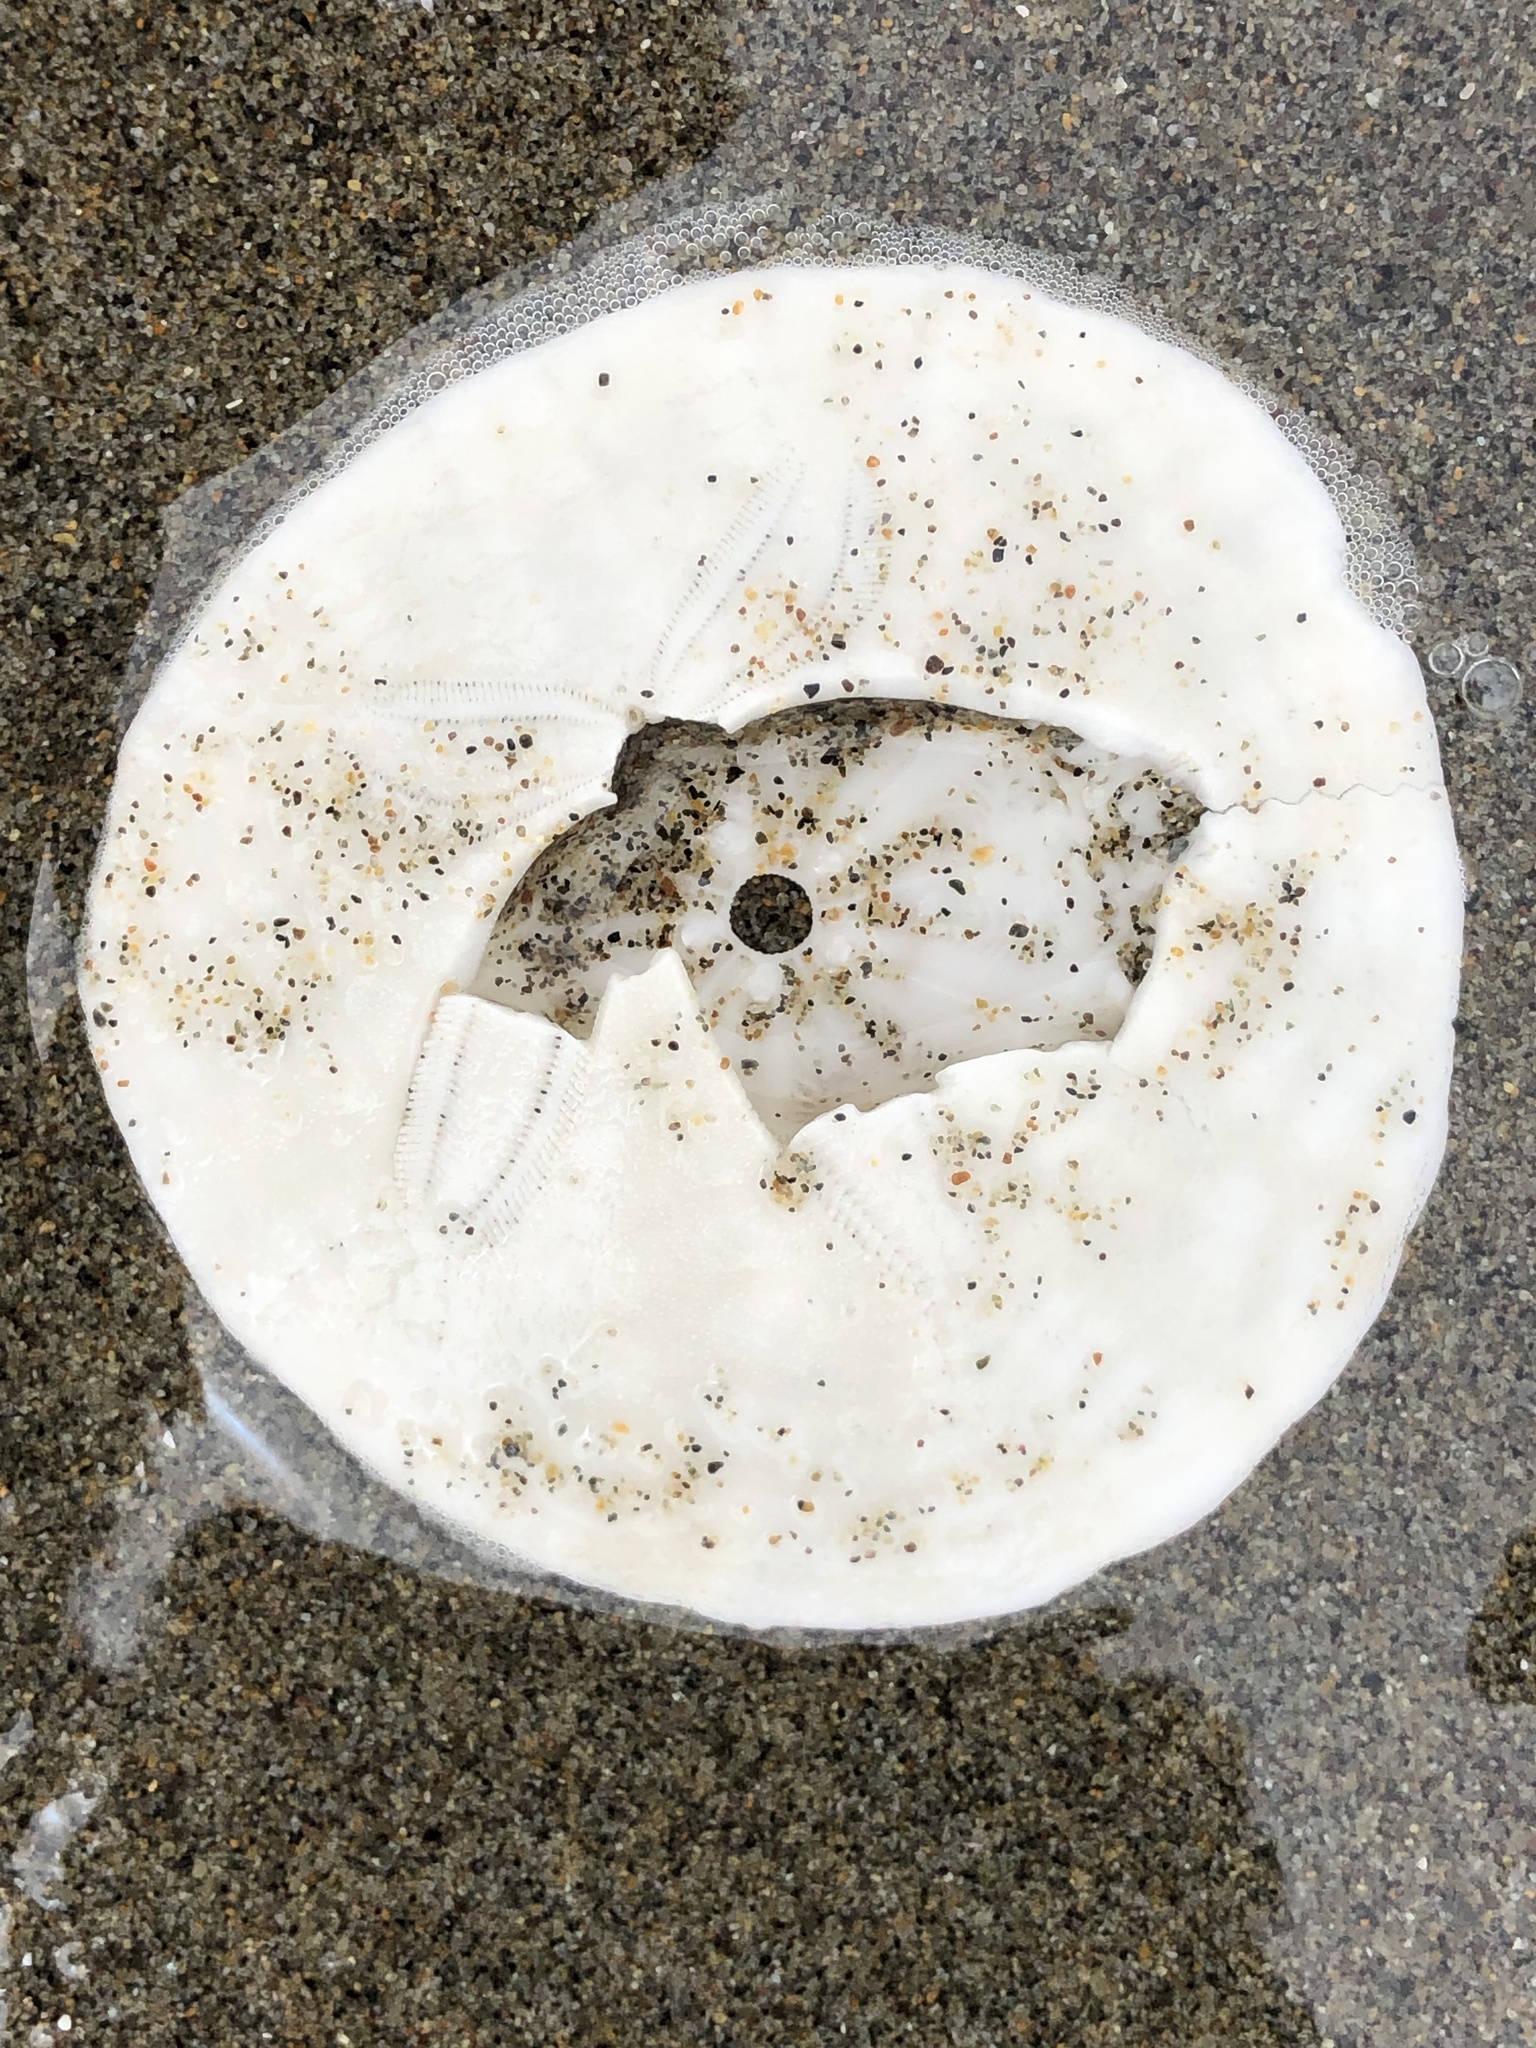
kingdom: Animalia
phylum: Echinodermata
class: Echinoidea
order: Echinolampadacea
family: Dendrasteridae
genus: Dendraster
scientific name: Dendraster excentricus
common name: Eccentric sand dollar sea urchin
